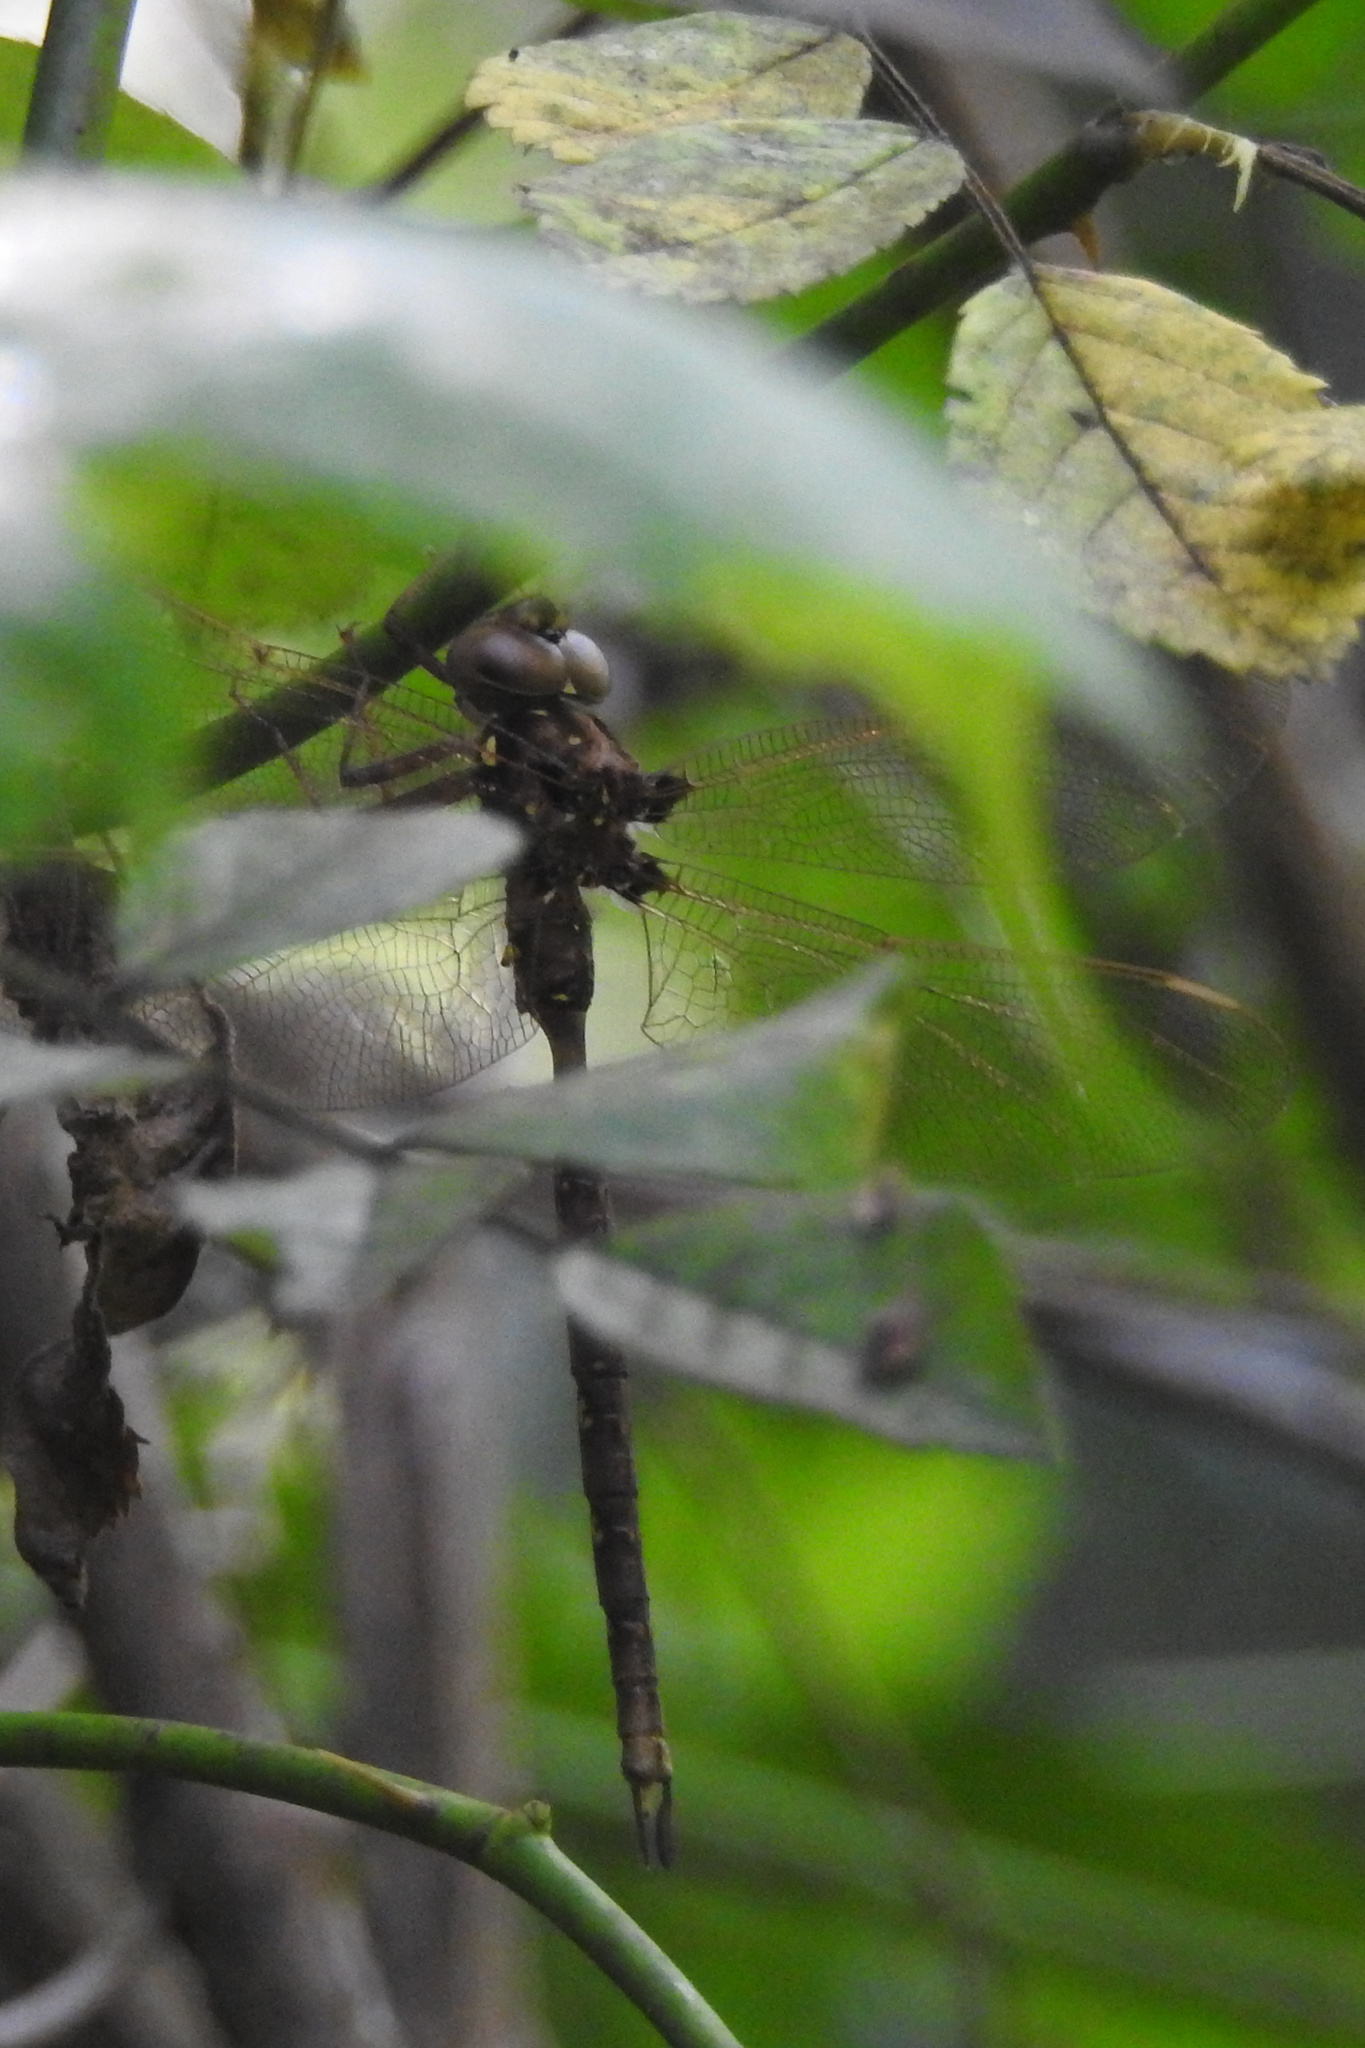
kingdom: Animalia
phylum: Arthropoda
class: Insecta
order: Odonata
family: Aeshnidae
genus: Boyeria
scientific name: Boyeria vinosa
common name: Fawn darner
